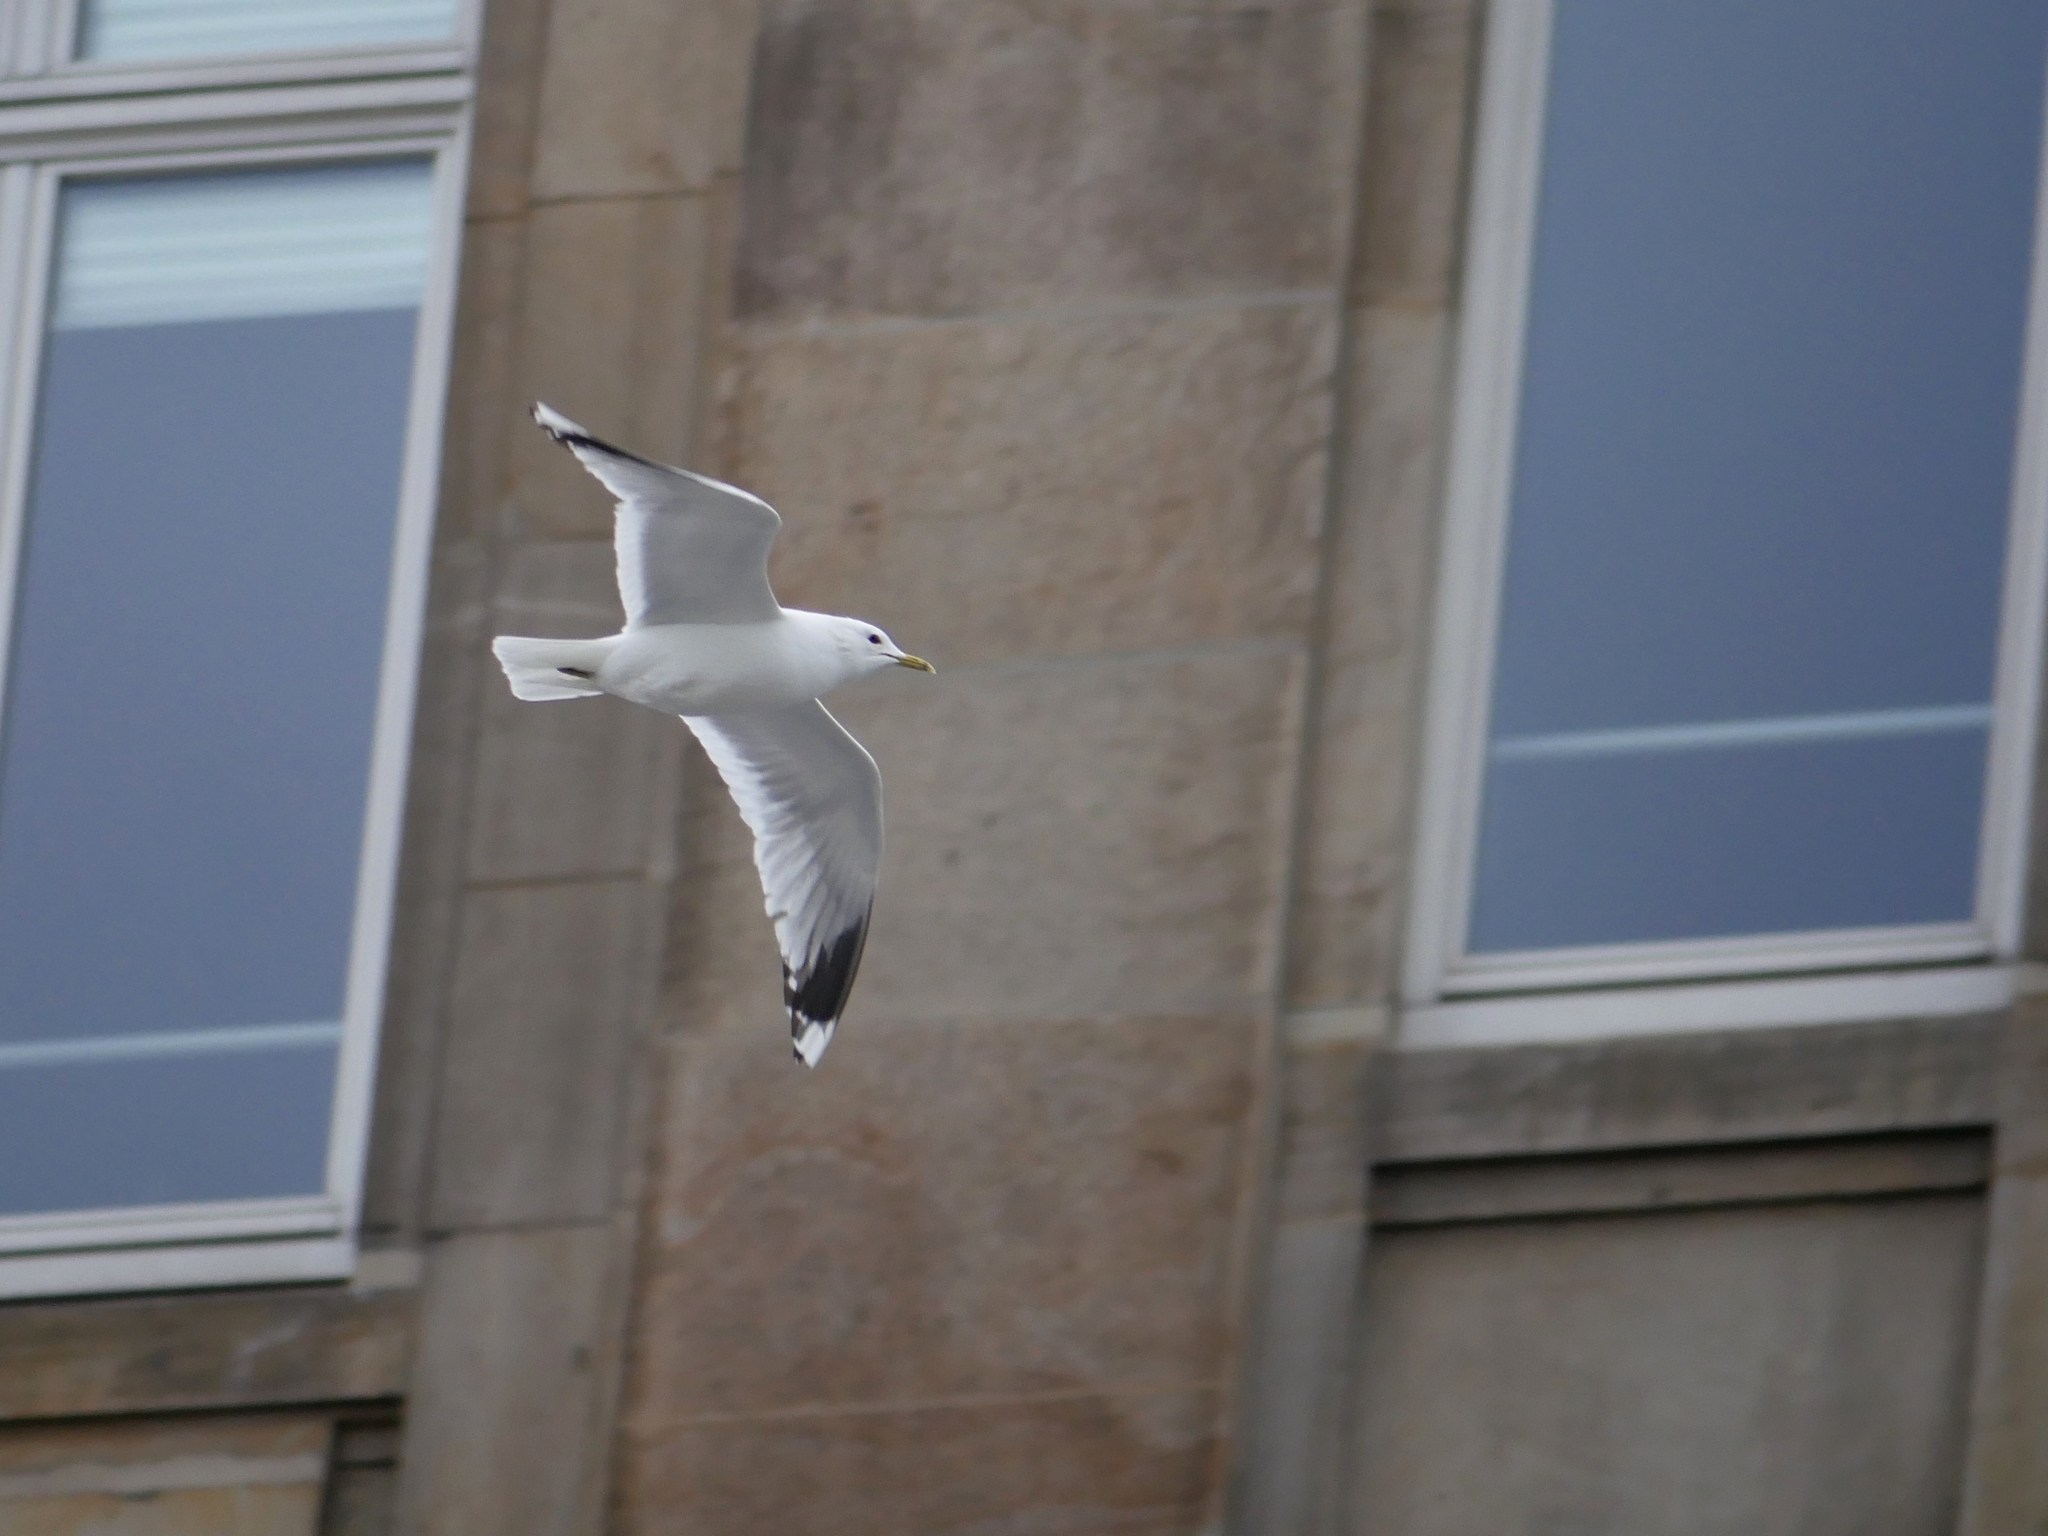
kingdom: Animalia
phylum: Chordata
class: Aves
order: Charadriiformes
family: Laridae
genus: Larus
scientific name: Larus canus
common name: Mew gull
